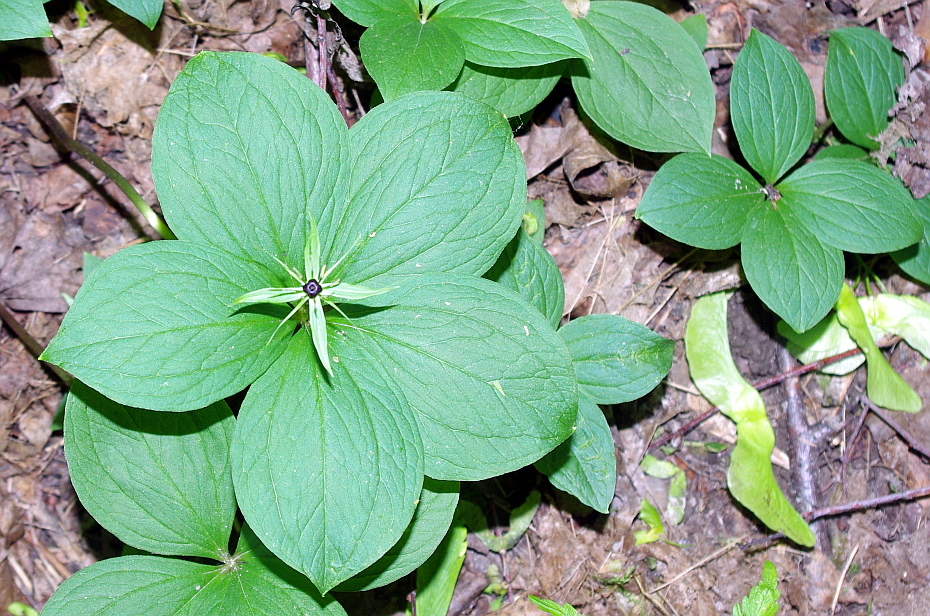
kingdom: Plantae
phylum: Tracheophyta
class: Liliopsida
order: Liliales
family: Melanthiaceae
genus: Paris
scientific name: Paris quadrifolia
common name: Herb-paris
